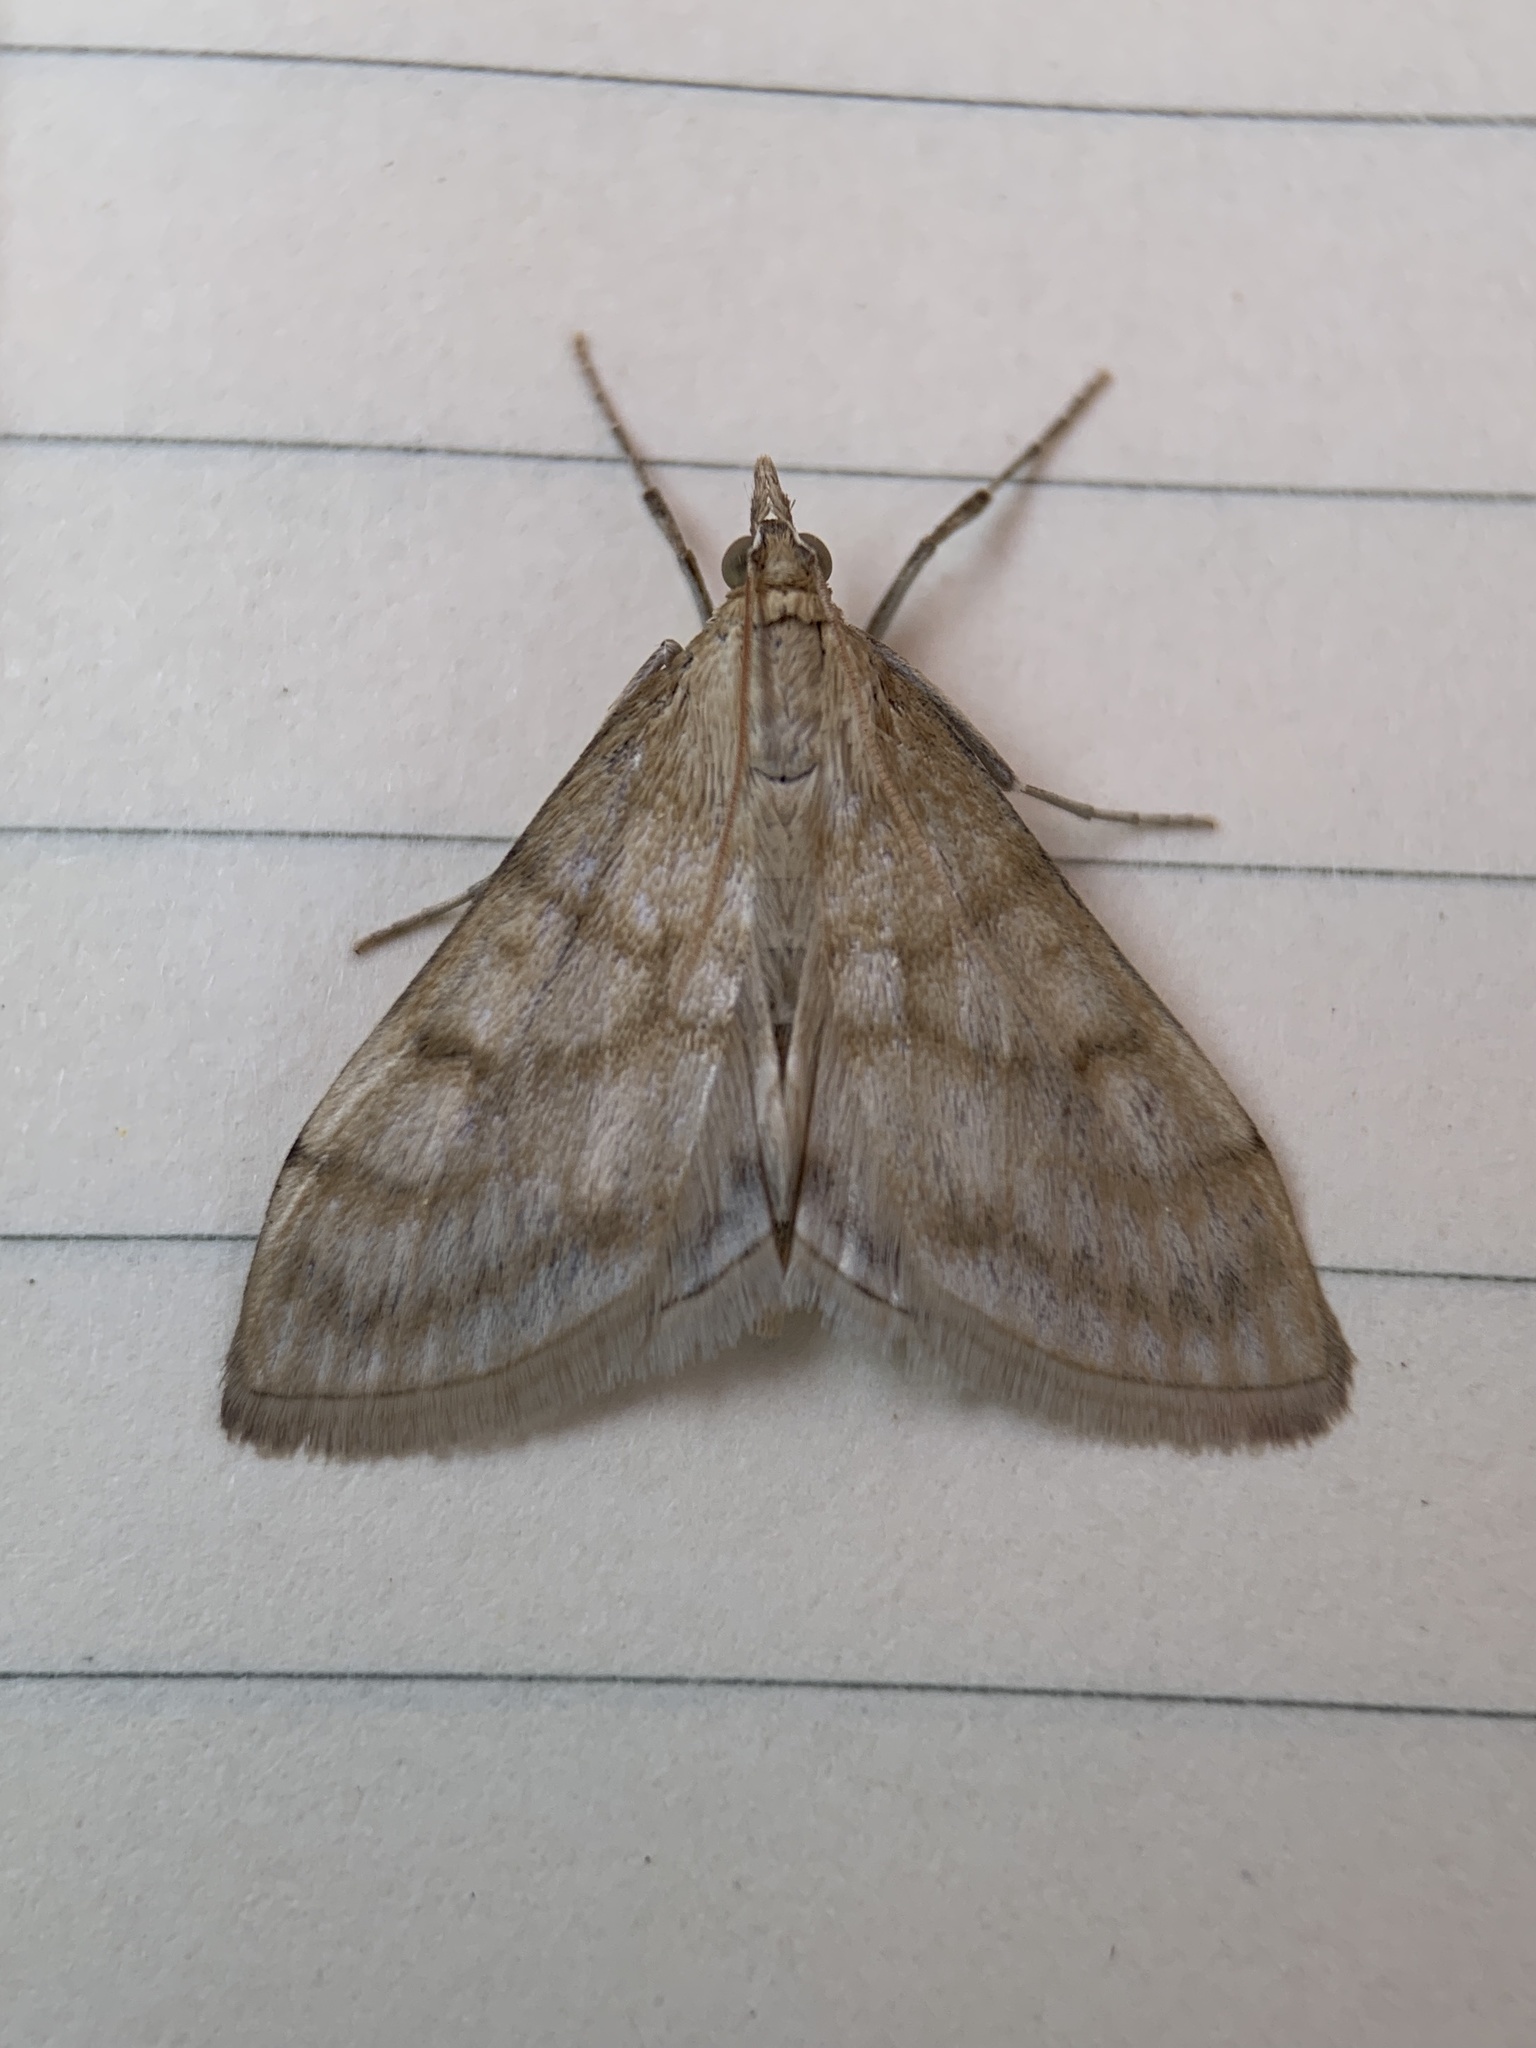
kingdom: Animalia
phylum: Arthropoda
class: Insecta
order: Lepidoptera
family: Crambidae
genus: Paracorsia
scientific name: Paracorsia repandalis
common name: Mullein moth
